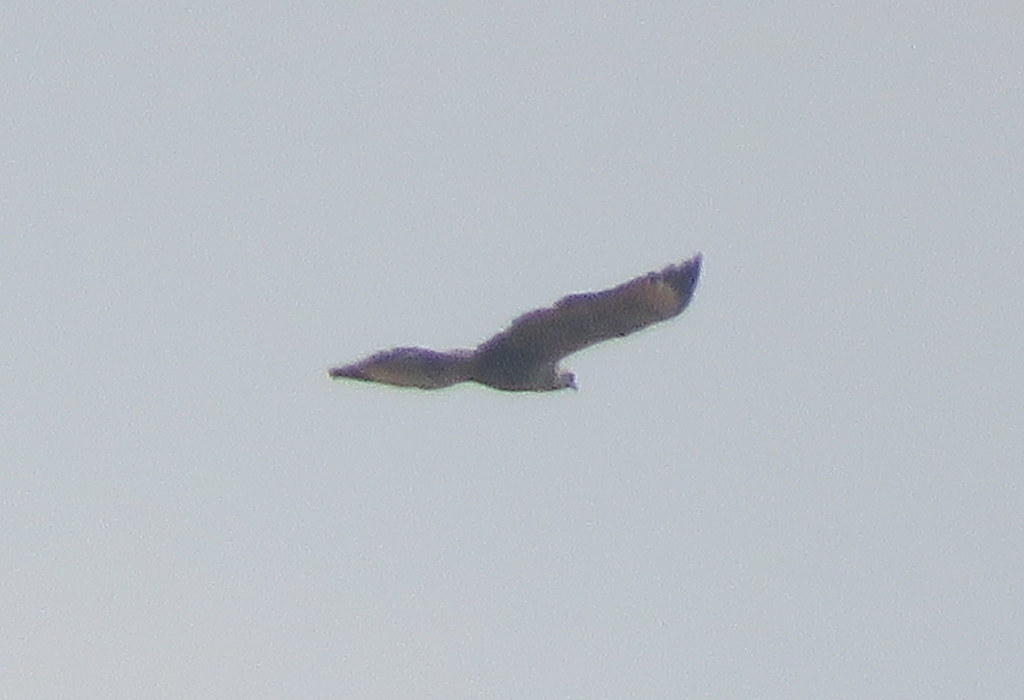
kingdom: Animalia
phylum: Chordata
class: Aves
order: Accipitriformes
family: Accipitridae
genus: Buteogallus
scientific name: Buteogallus meridionalis
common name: Savanna hawk
